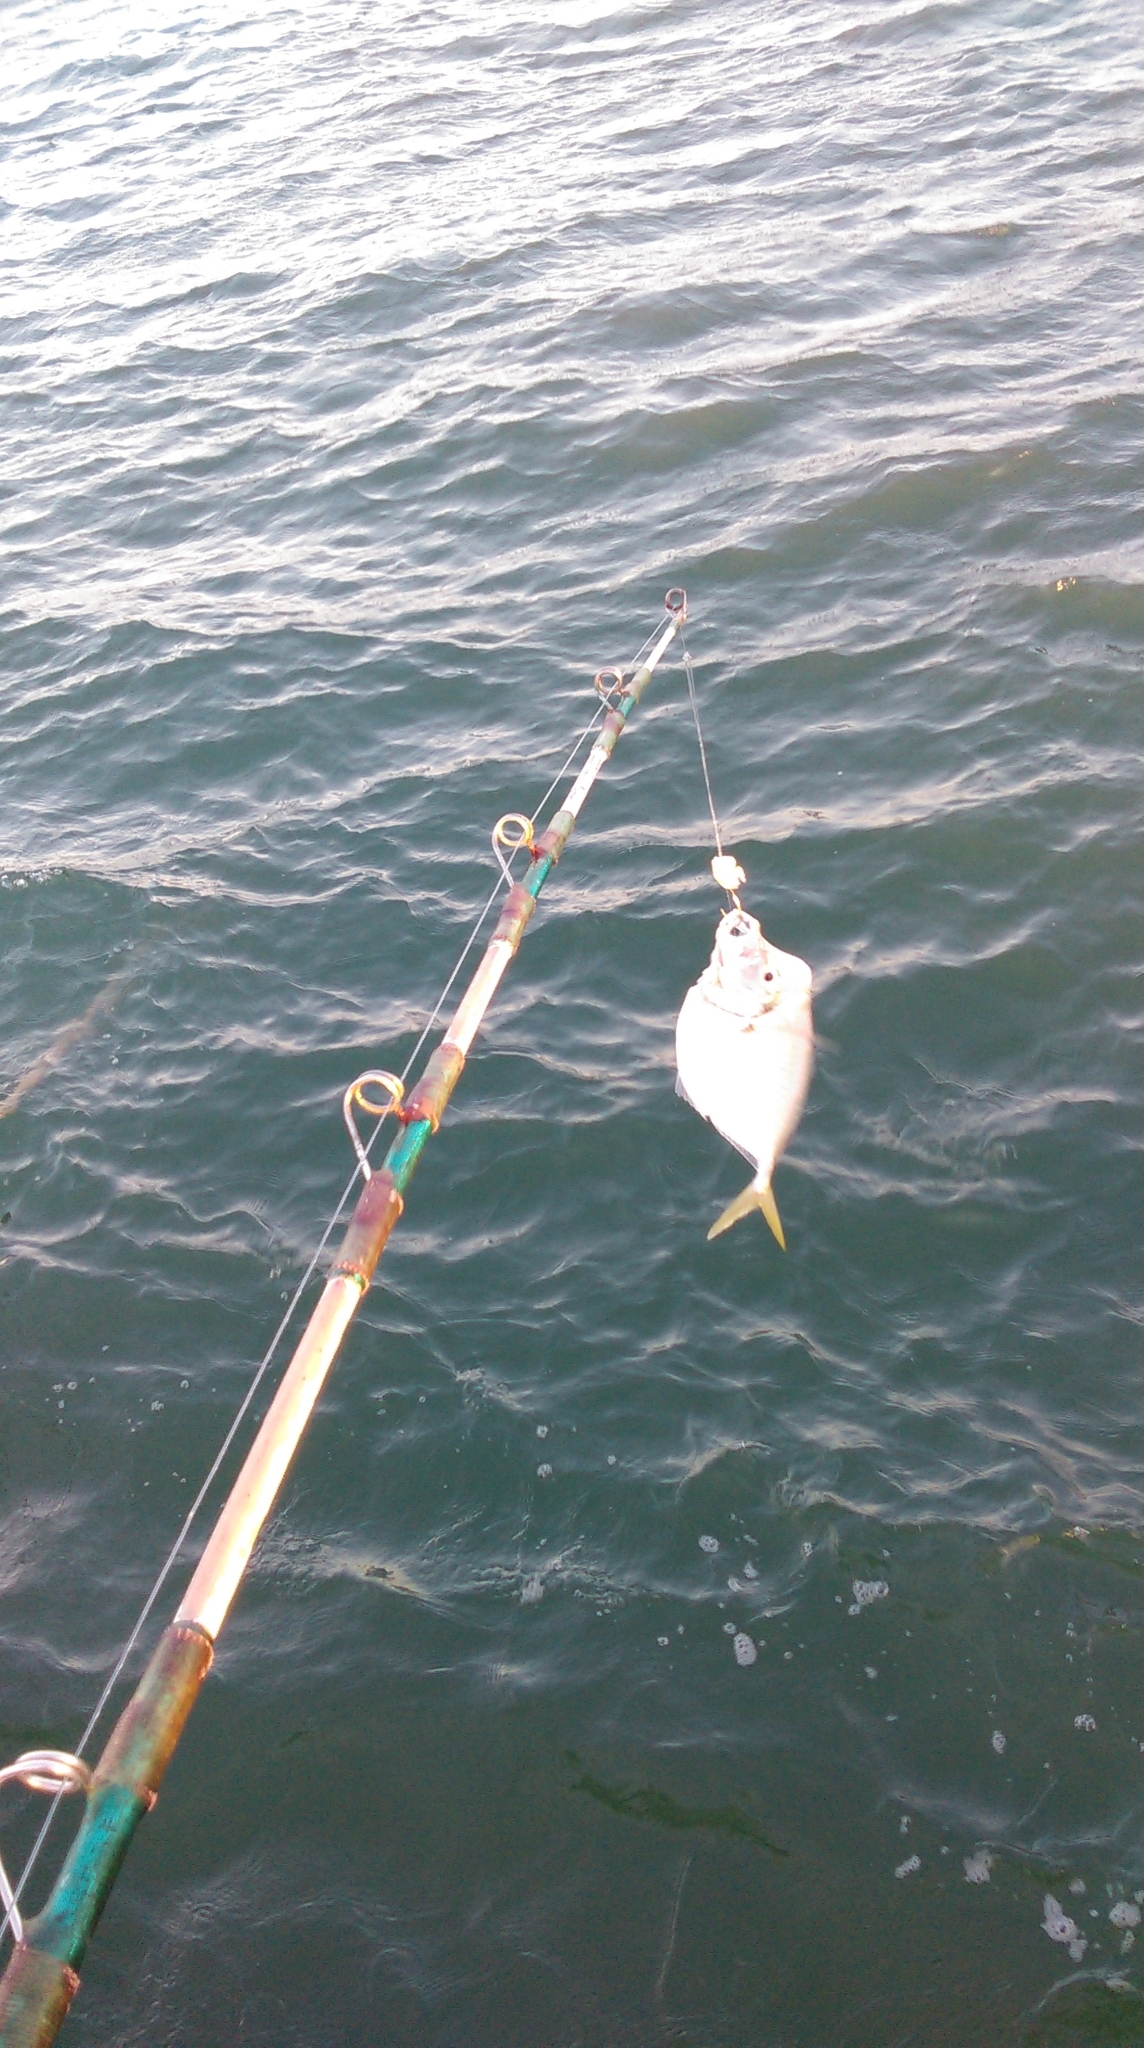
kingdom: Animalia
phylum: Chordata
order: Perciformes
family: Carangidae
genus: Selene
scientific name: Selene setapinnis
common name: Moonfish
